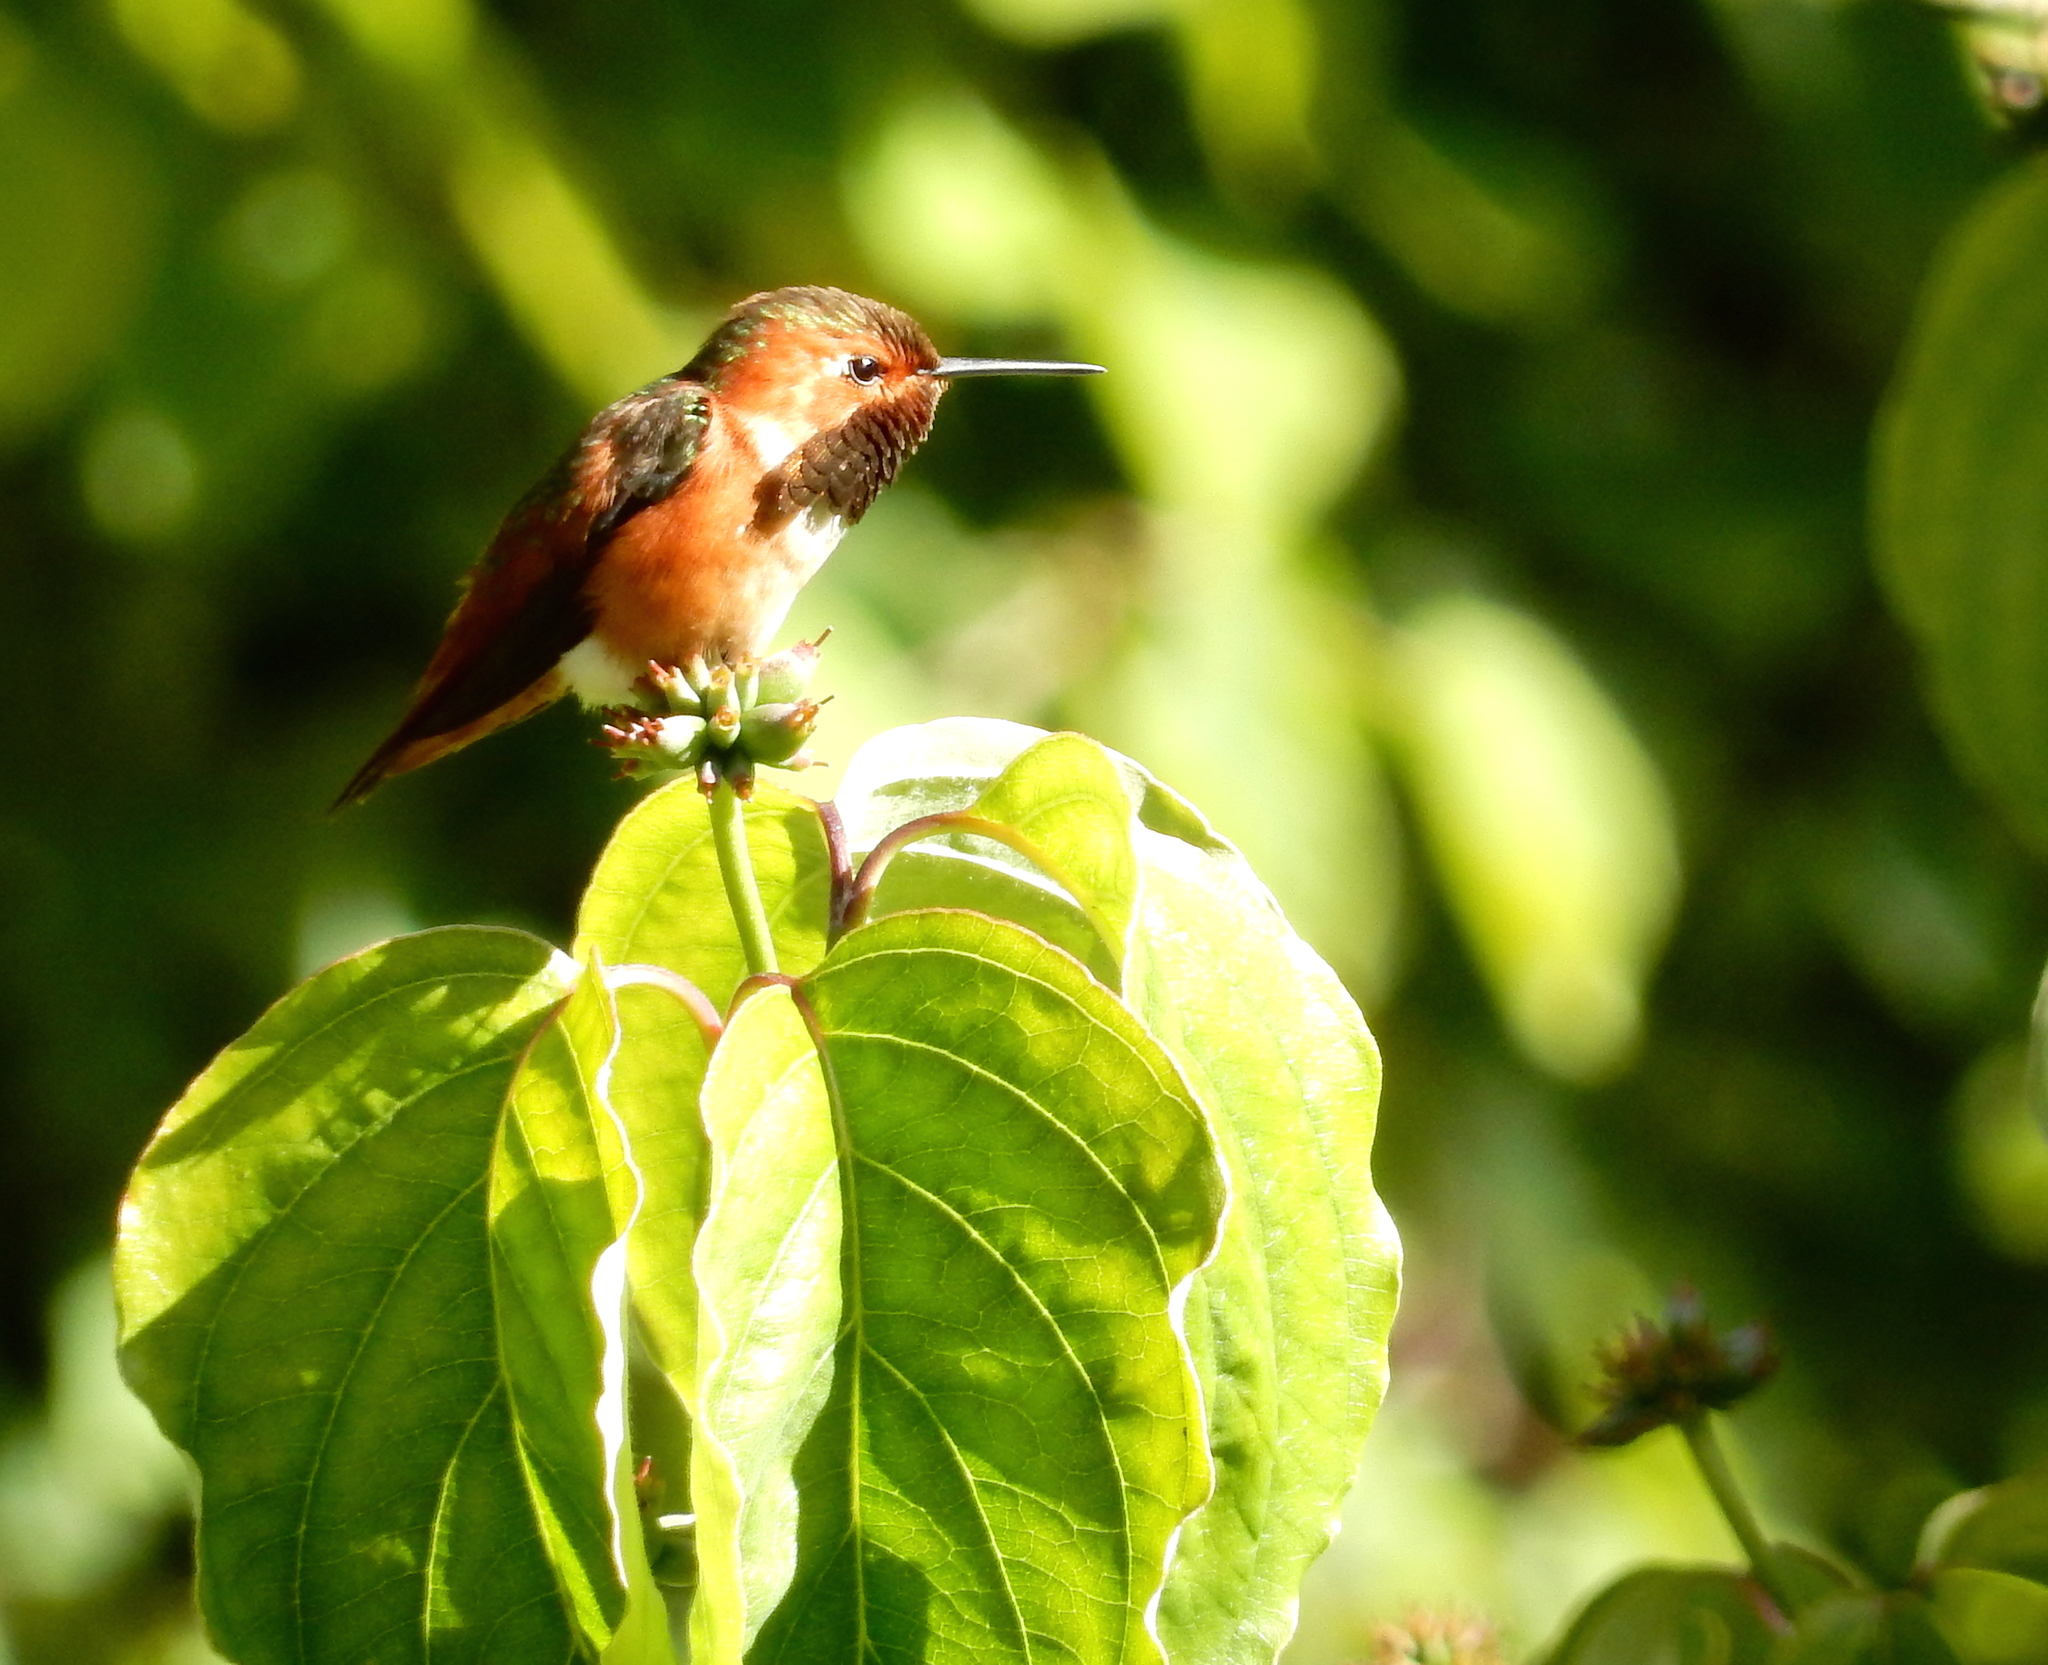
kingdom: Animalia
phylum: Chordata
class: Aves
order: Apodiformes
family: Trochilidae
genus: Selasphorus
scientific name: Selasphorus sasin
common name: Allen's hummingbird
